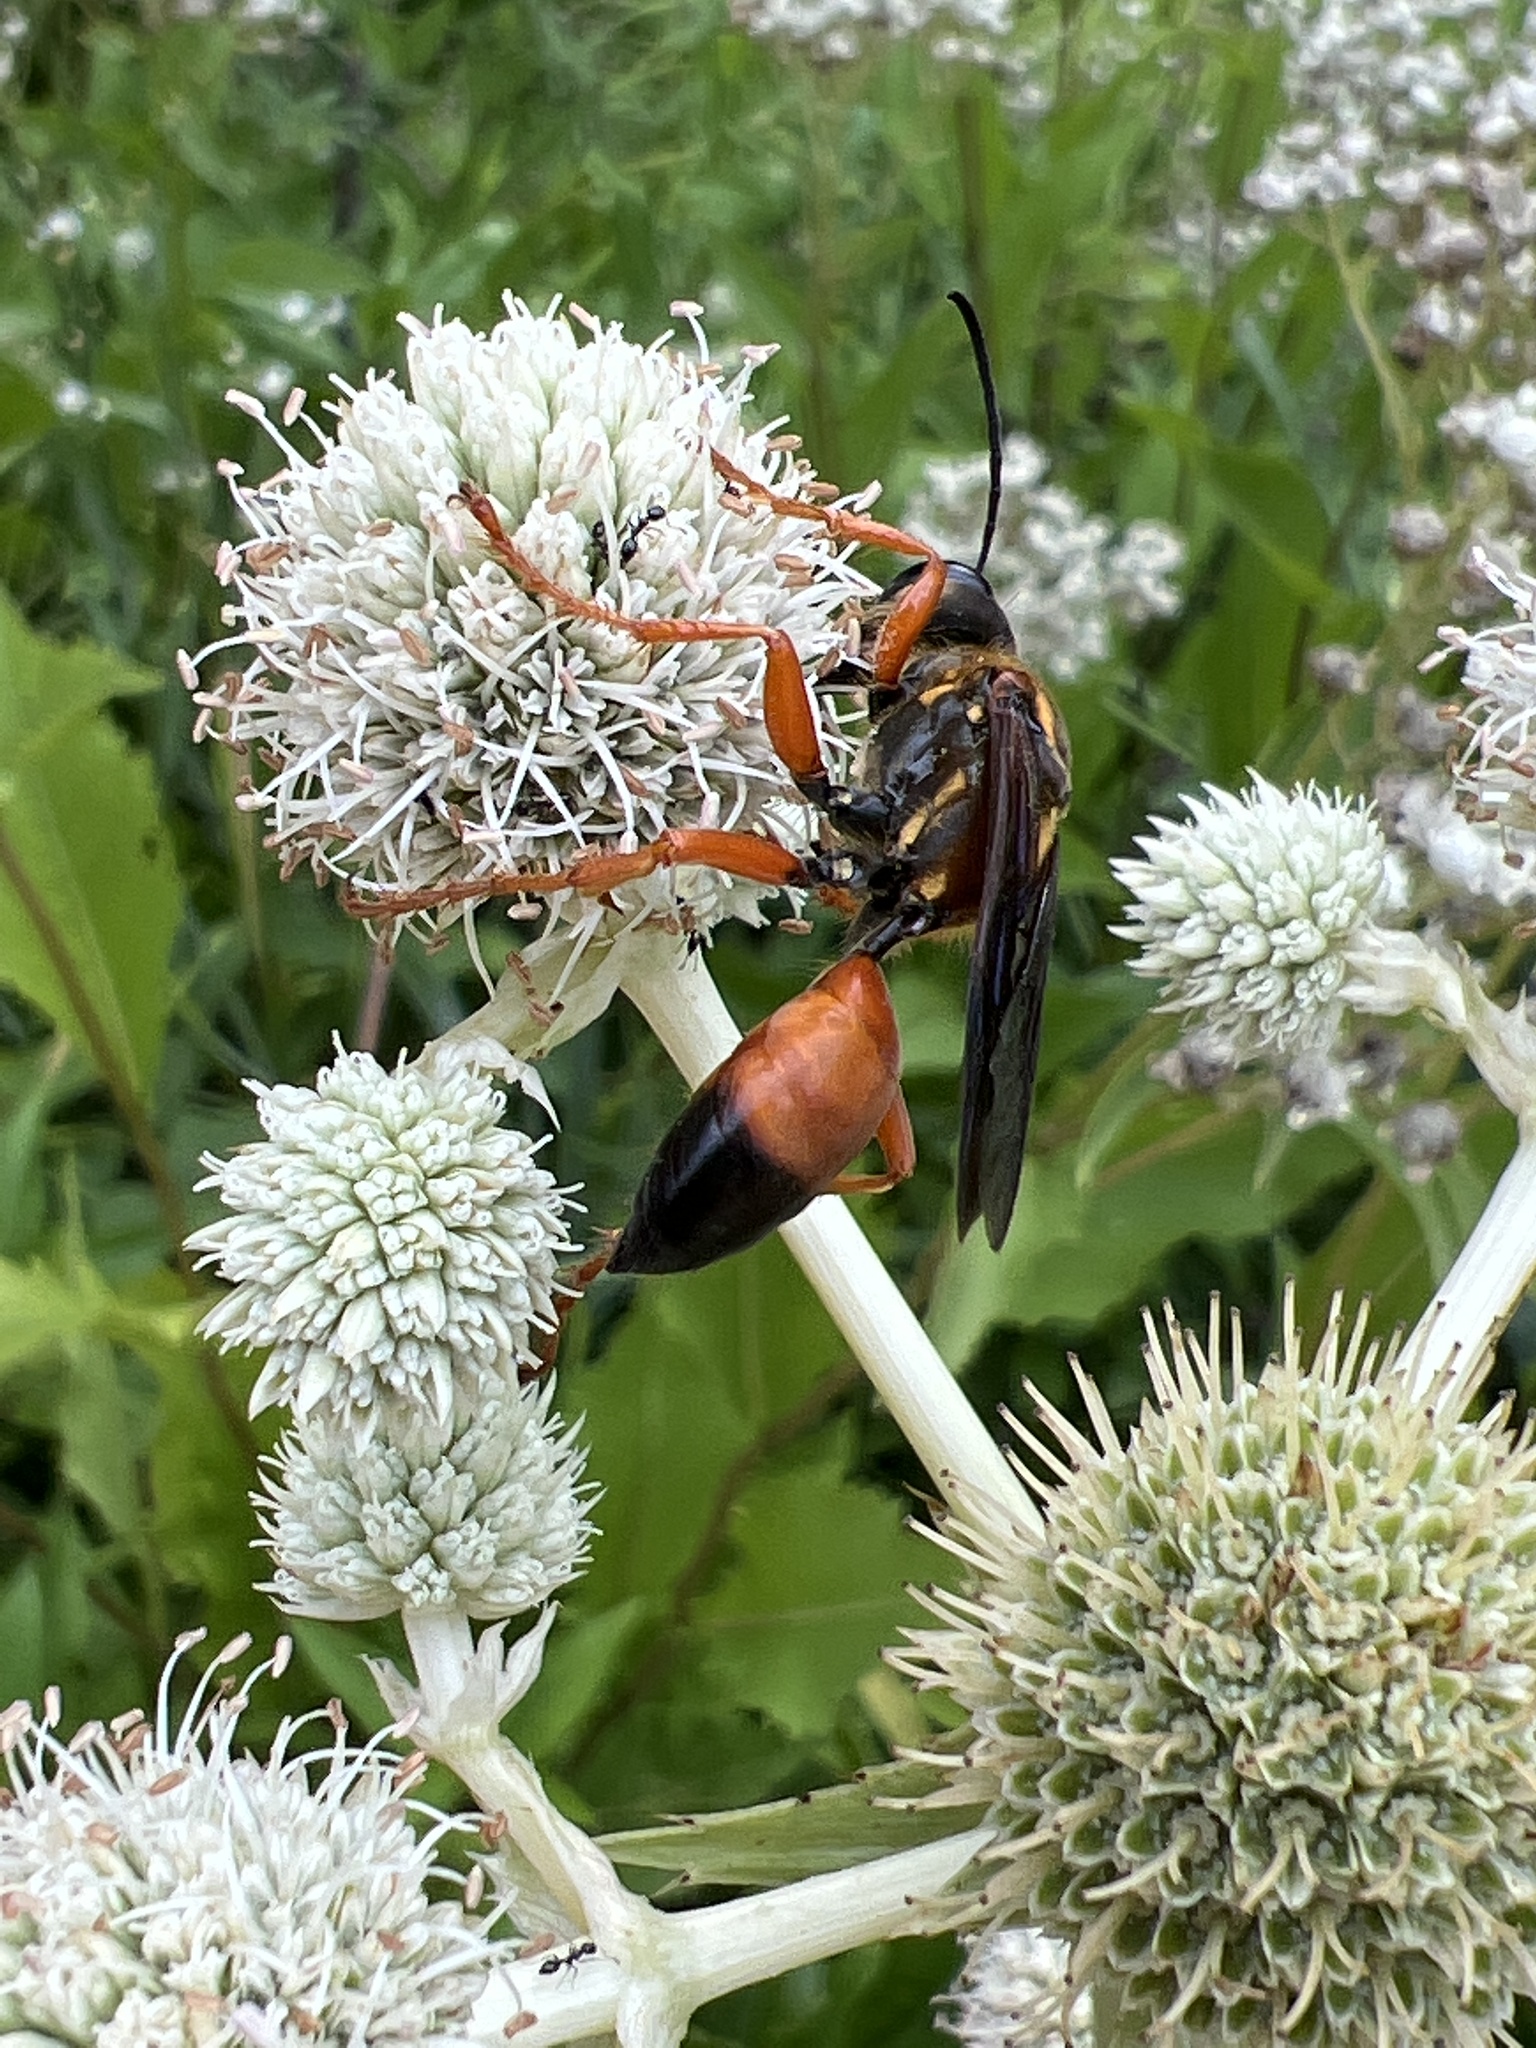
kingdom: Animalia
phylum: Arthropoda
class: Insecta
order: Hymenoptera
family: Sphecidae
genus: Sphex
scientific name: Sphex ichneumoneus
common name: Great golden digger wasp
